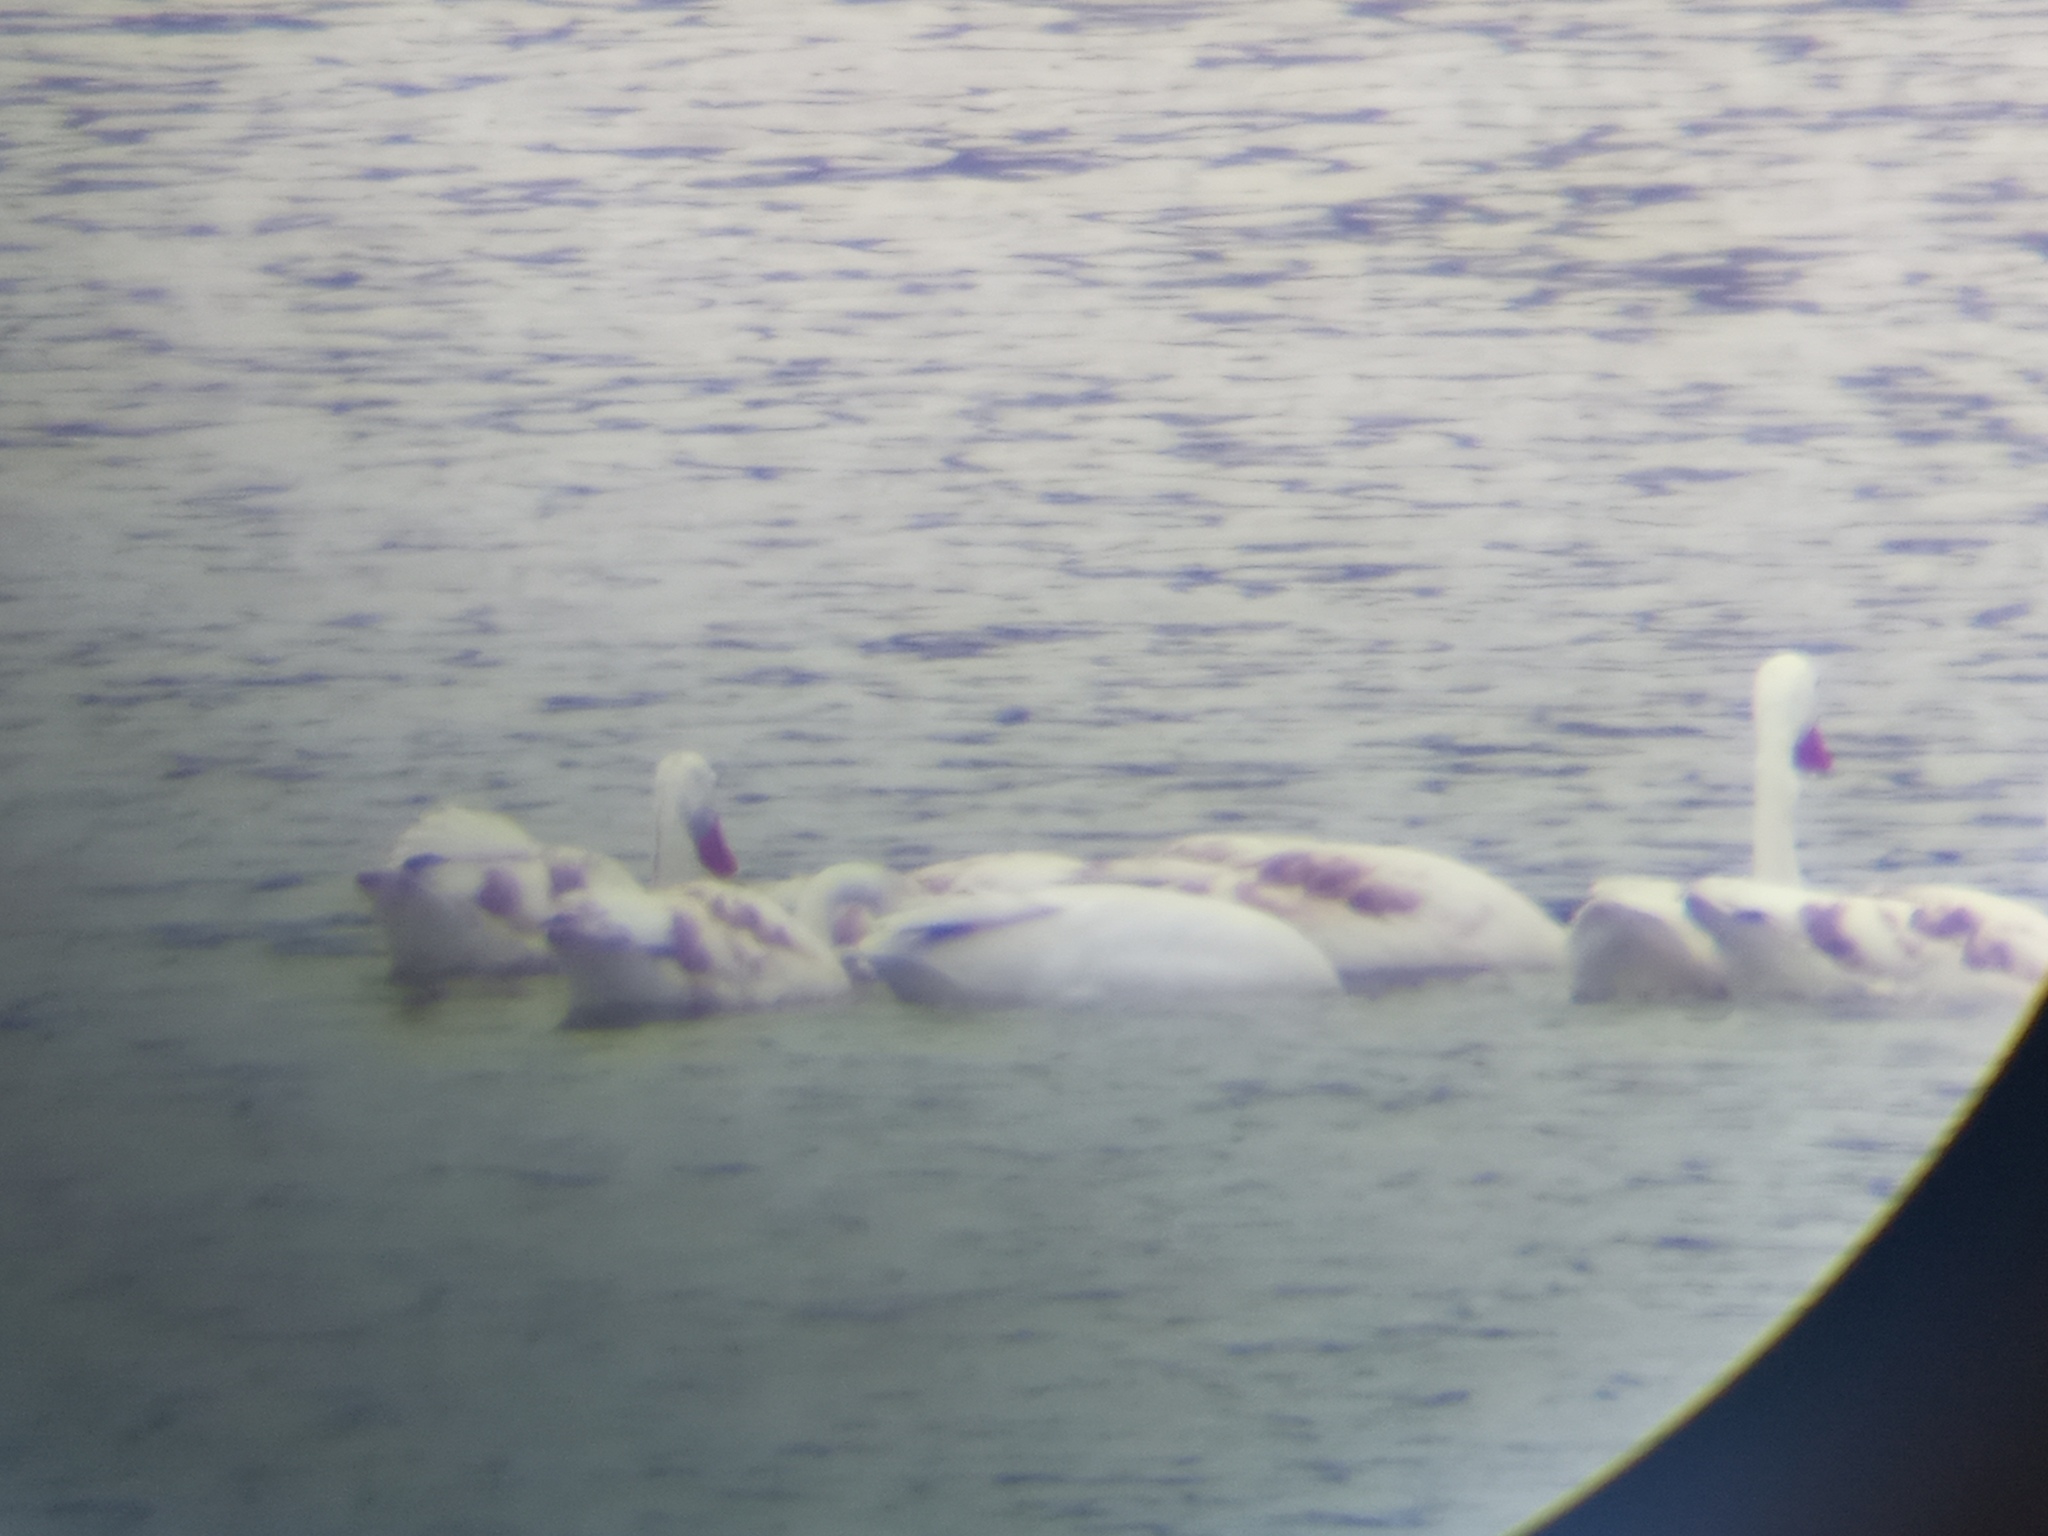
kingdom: Animalia
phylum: Chordata
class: Aves
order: Anseriformes
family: Anatidae
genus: Coscoroba
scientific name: Coscoroba coscoroba
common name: Coscoroba swan
